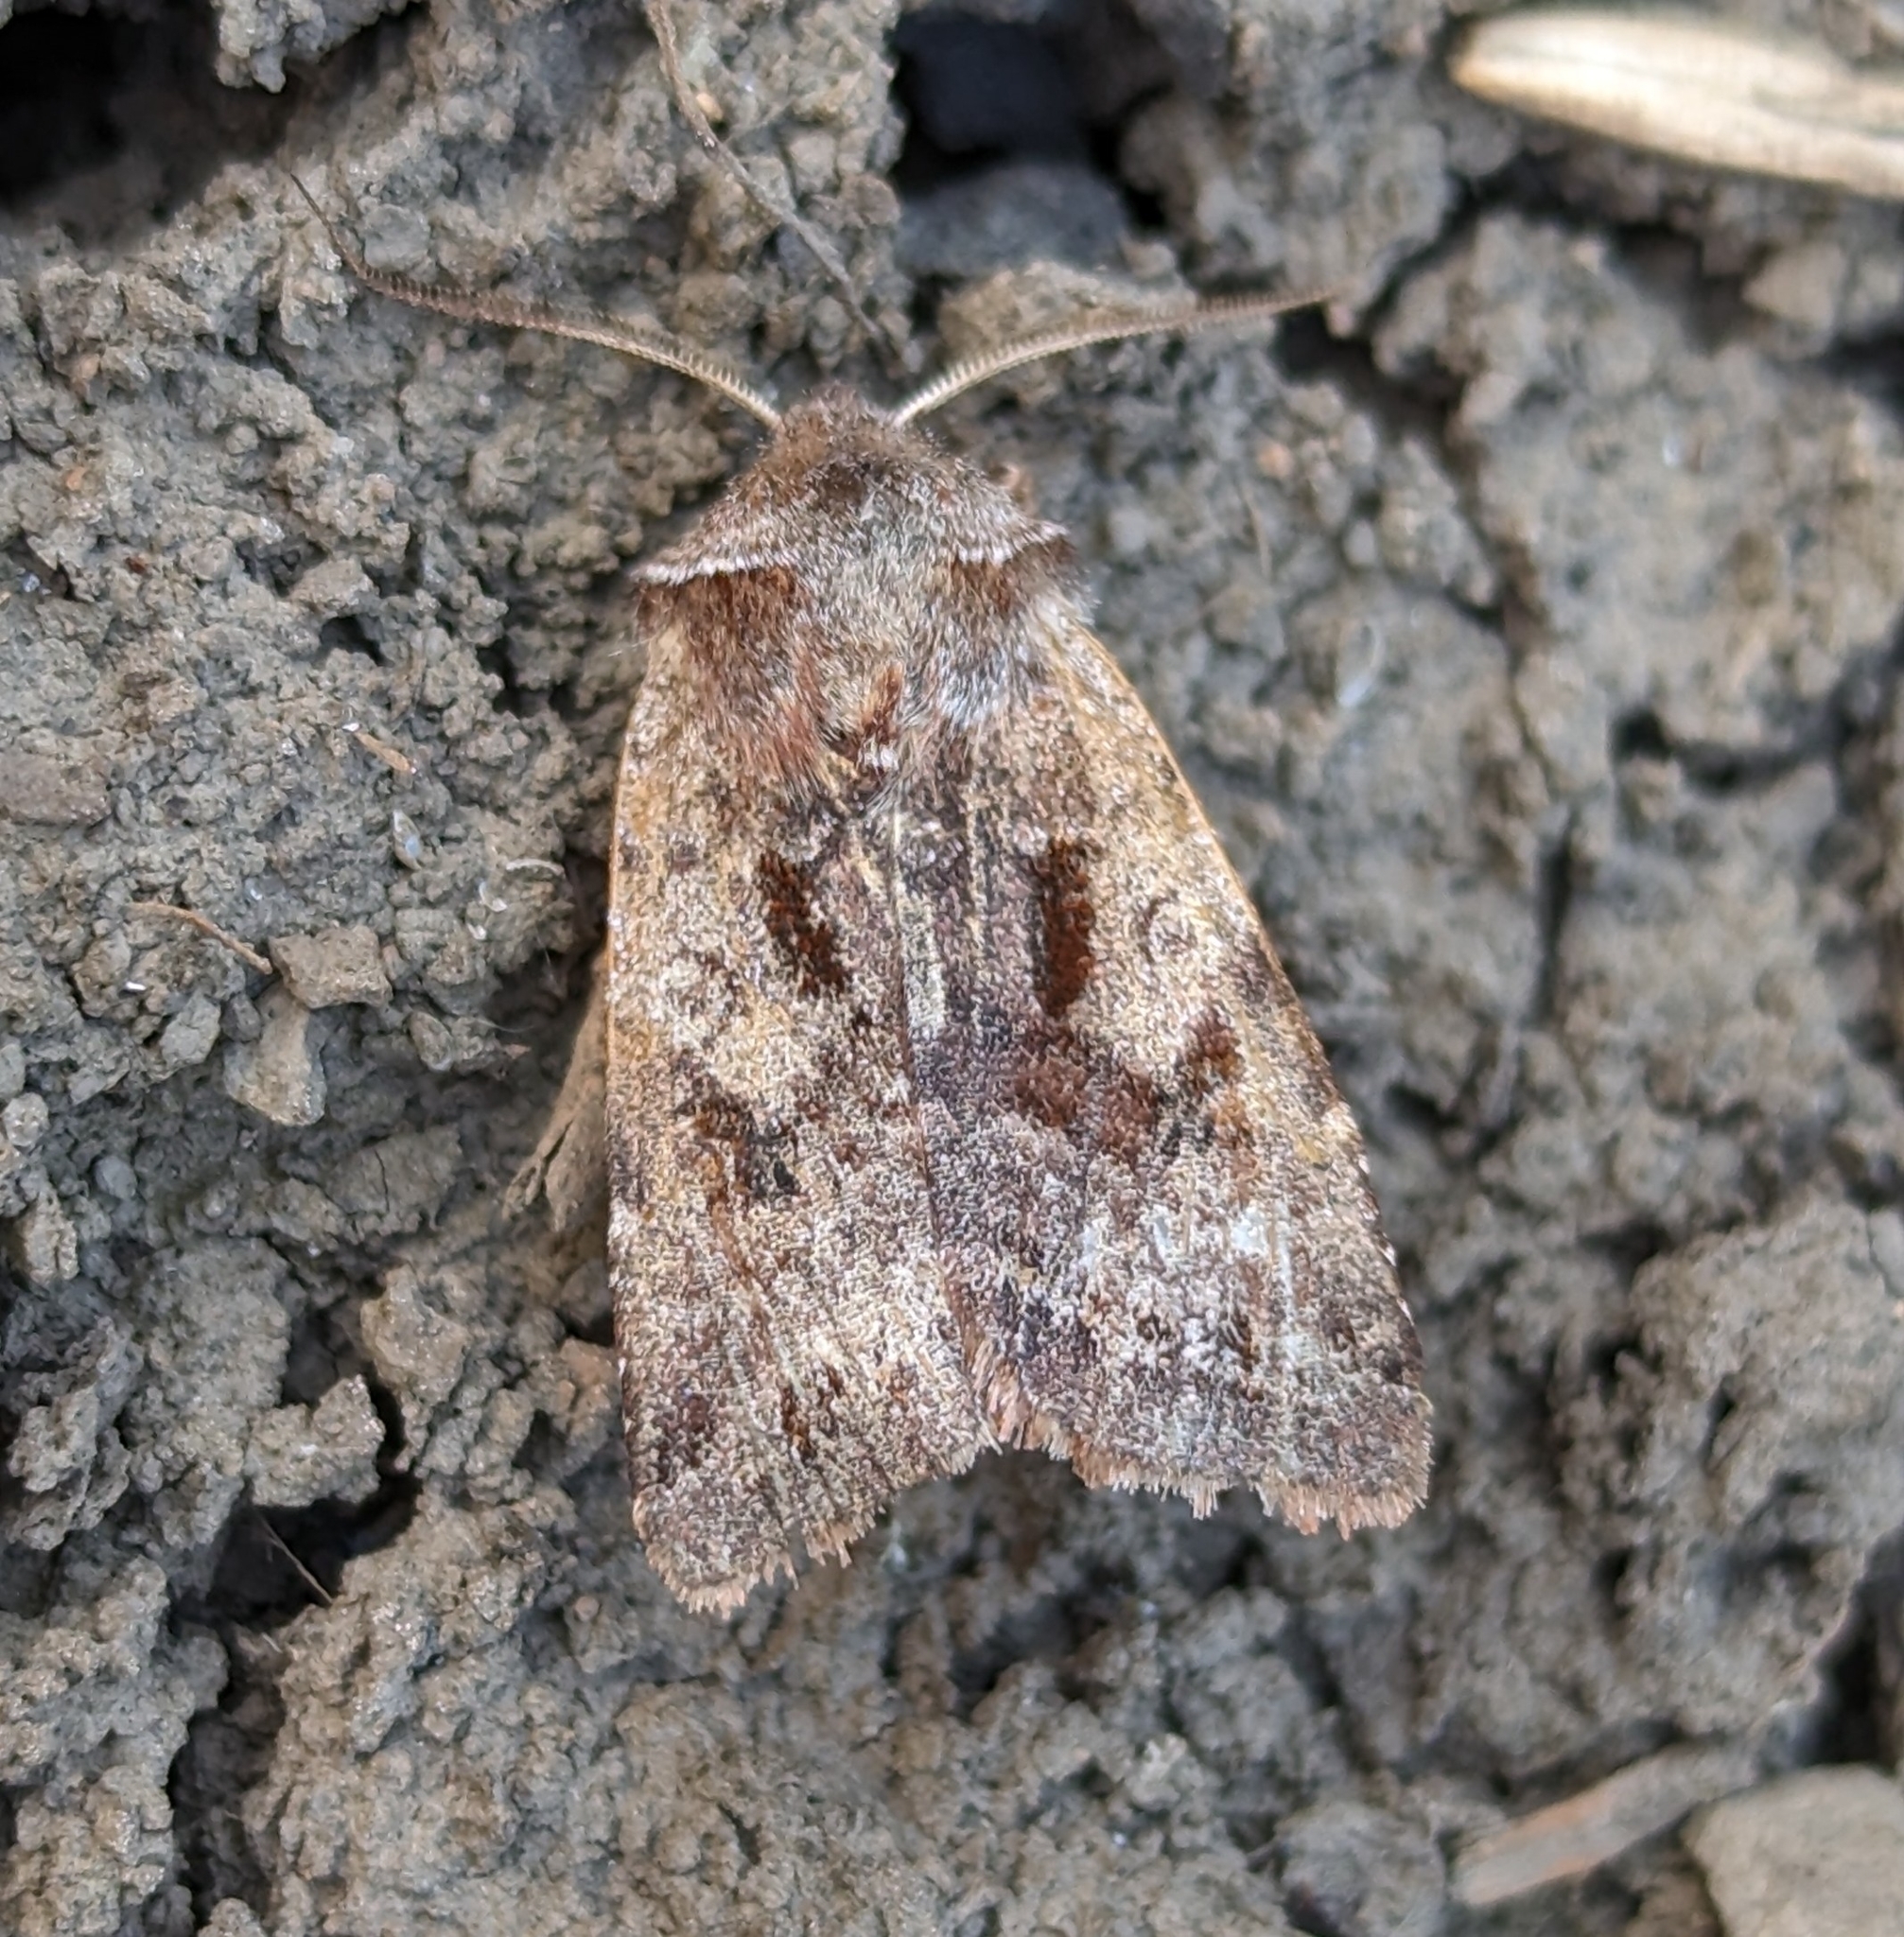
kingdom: Animalia
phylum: Arthropoda
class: Insecta
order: Lepidoptera
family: Noctuidae
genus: Cerastis
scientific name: Cerastis salicarum
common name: Willow dart
